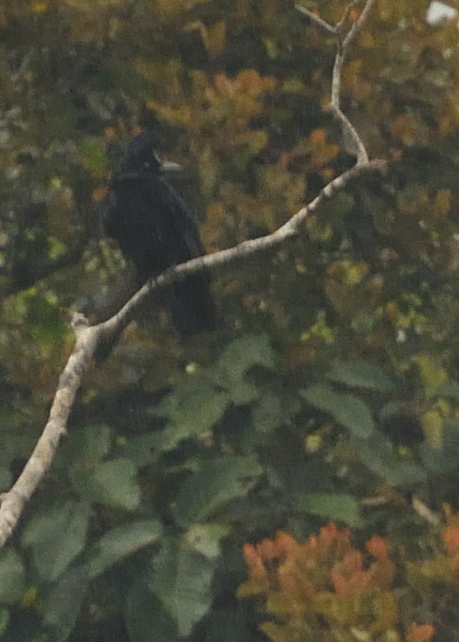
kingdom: Animalia
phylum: Chordata
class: Aves
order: Passeriformes
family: Cotingidae
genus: Cephalopterus
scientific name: Cephalopterus ornatus
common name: Amazonian umbrellabird
